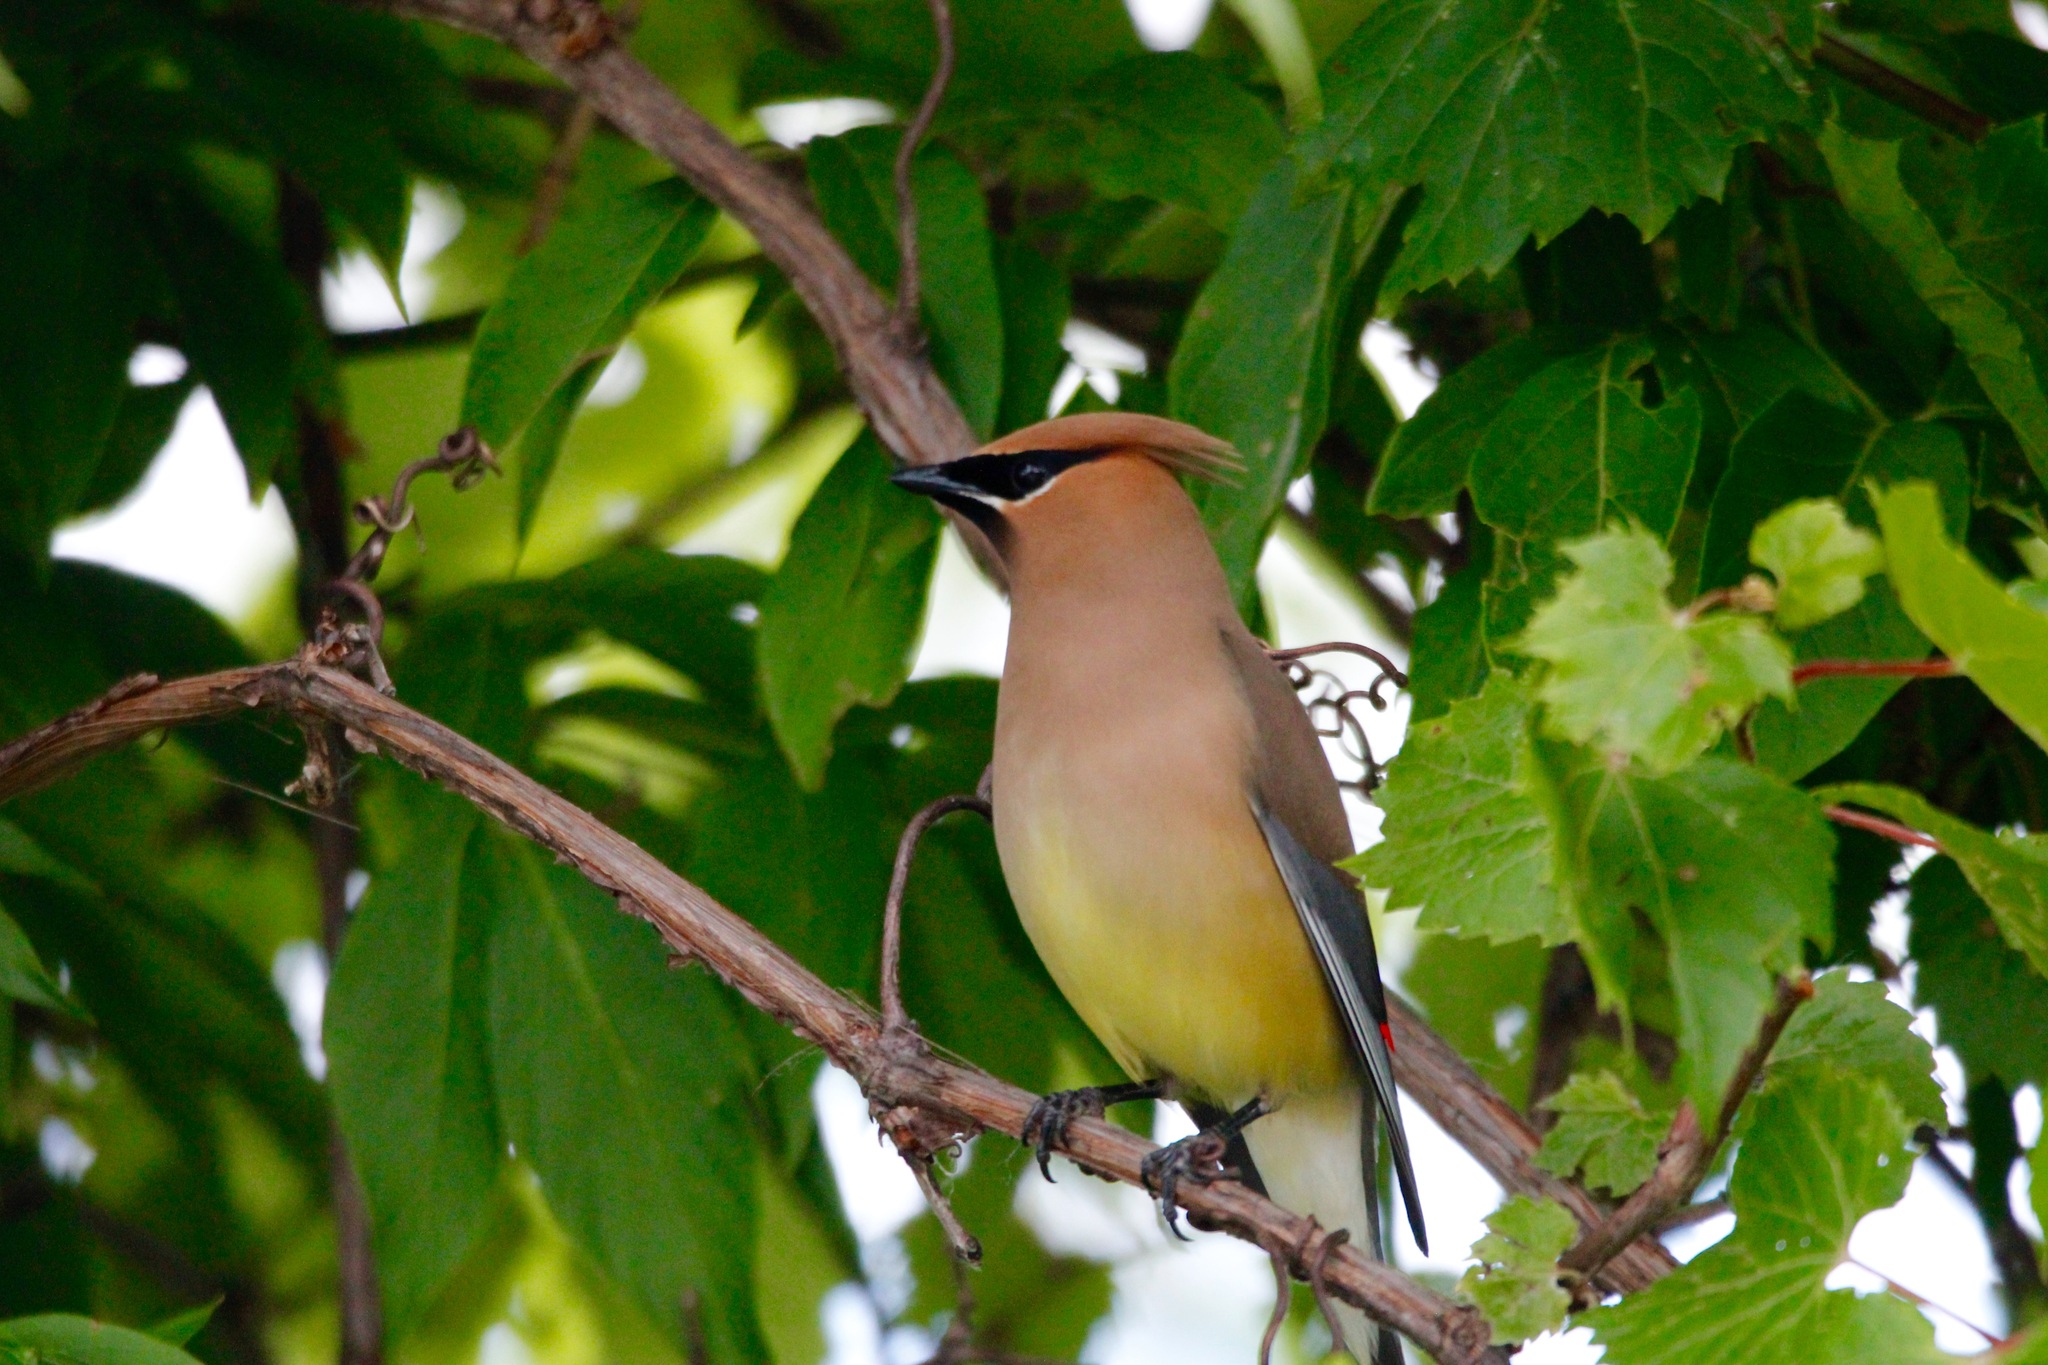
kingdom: Animalia
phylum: Chordata
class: Aves
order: Passeriformes
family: Bombycillidae
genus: Bombycilla
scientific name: Bombycilla cedrorum
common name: Cedar waxwing
